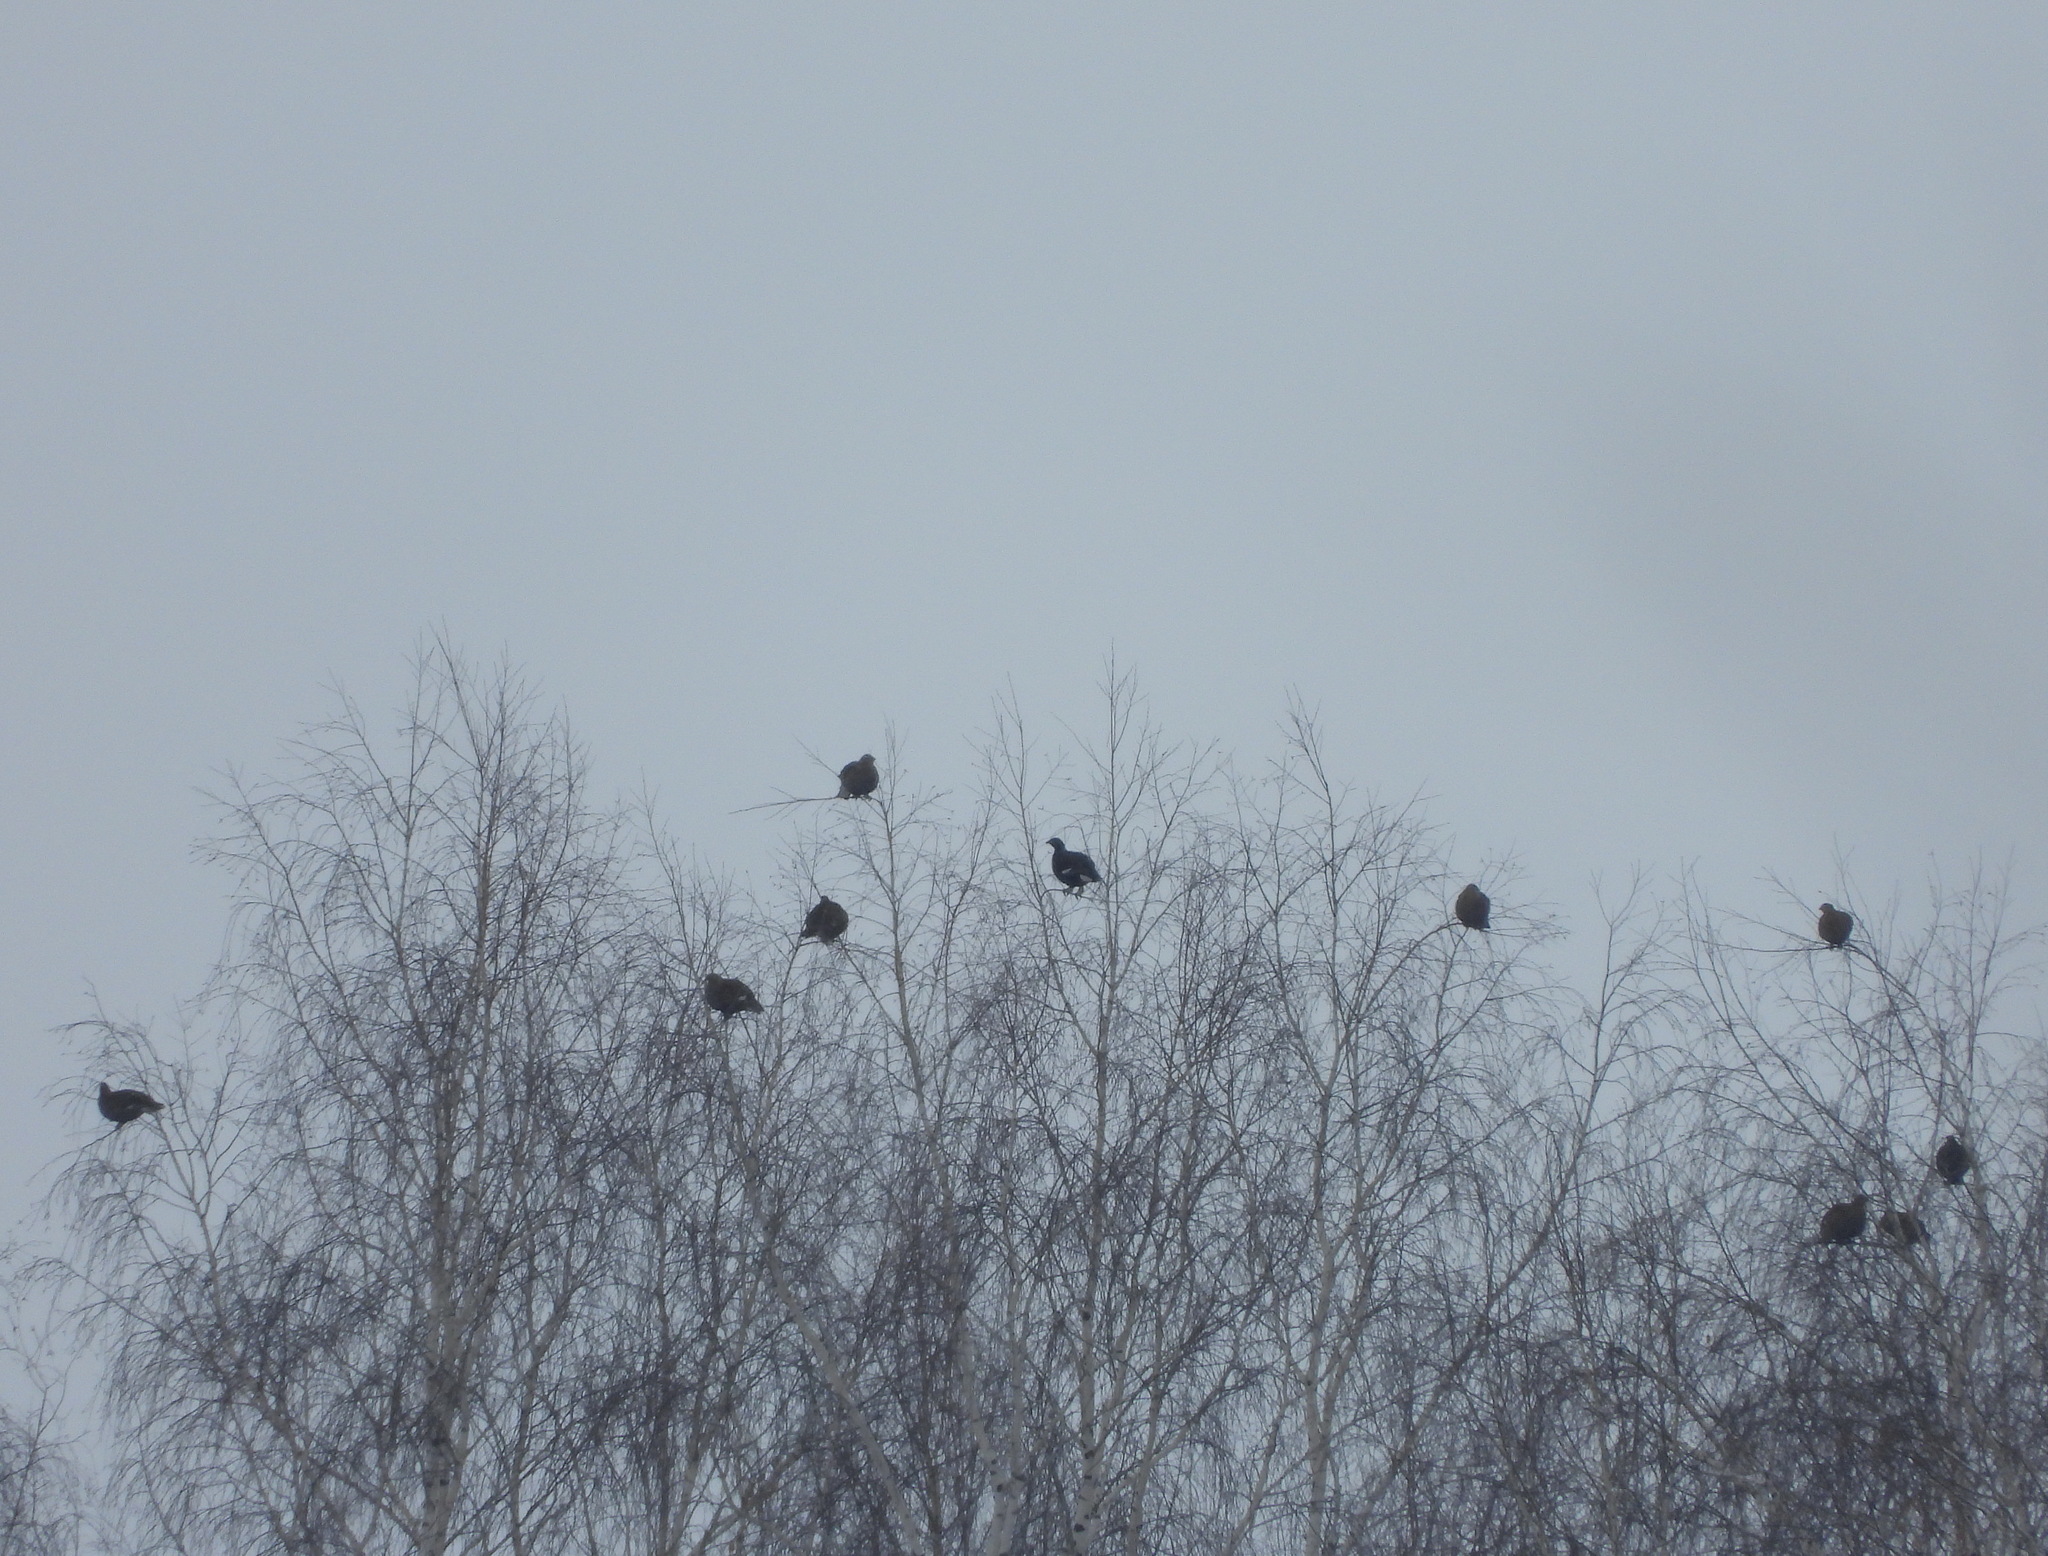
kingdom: Animalia
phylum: Chordata
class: Aves
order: Galliformes
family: Phasianidae
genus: Lyrurus
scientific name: Lyrurus tetrix
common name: Black grouse
